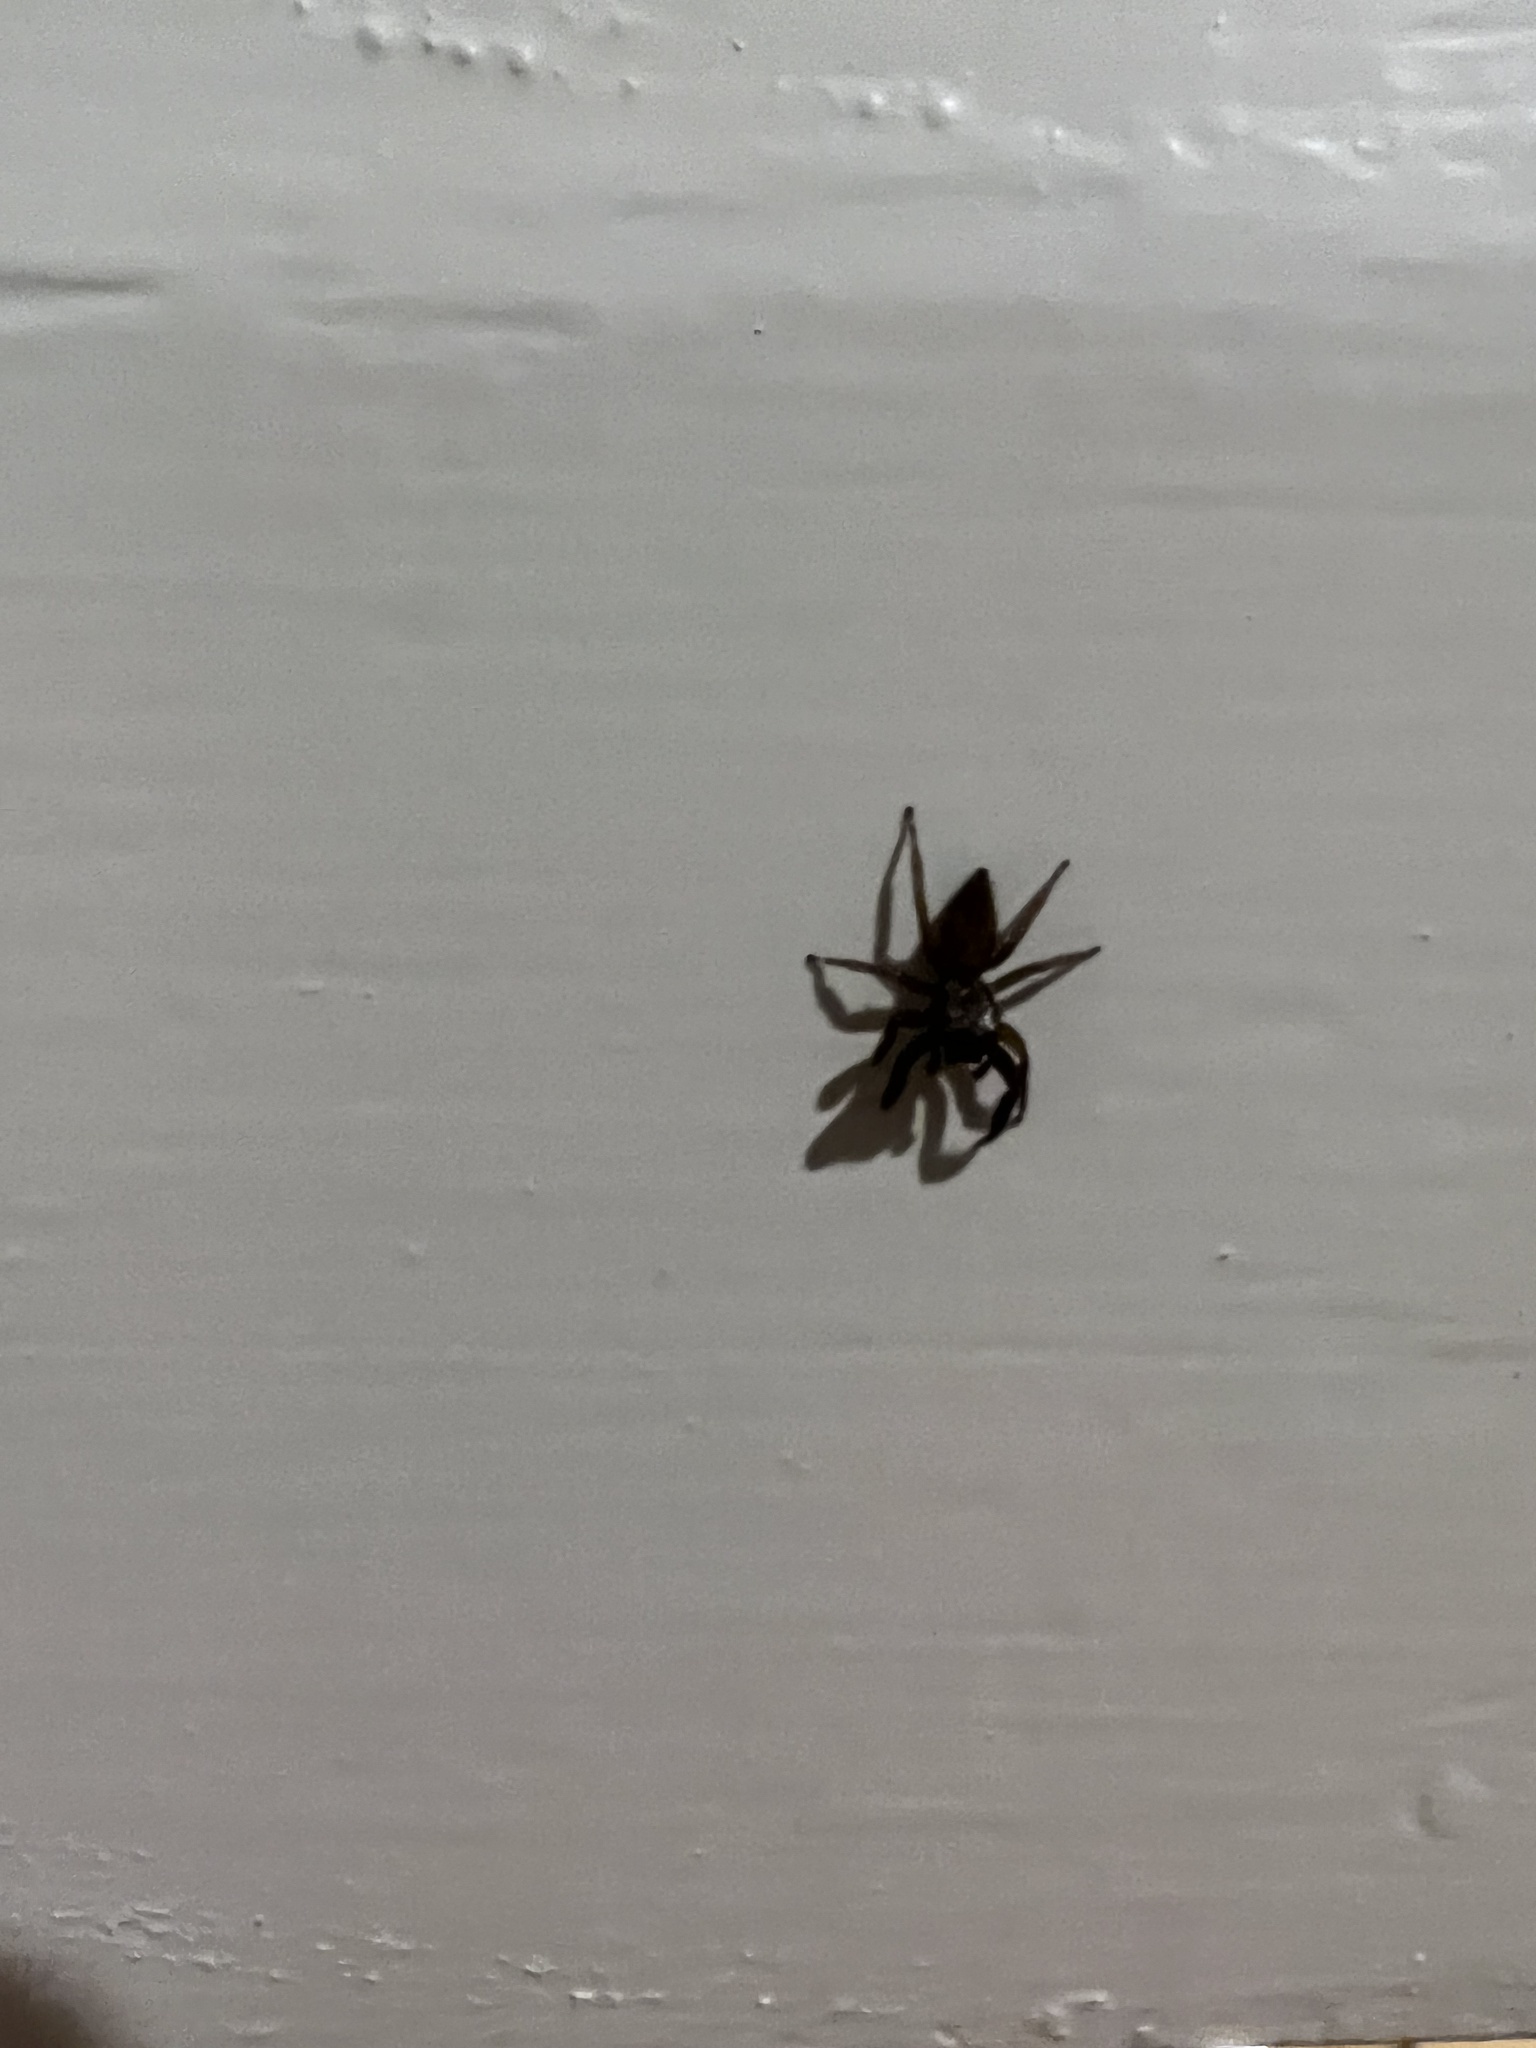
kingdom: Animalia
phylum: Arthropoda
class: Arachnida
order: Araneae
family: Salticidae
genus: Trite
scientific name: Trite auricoma
